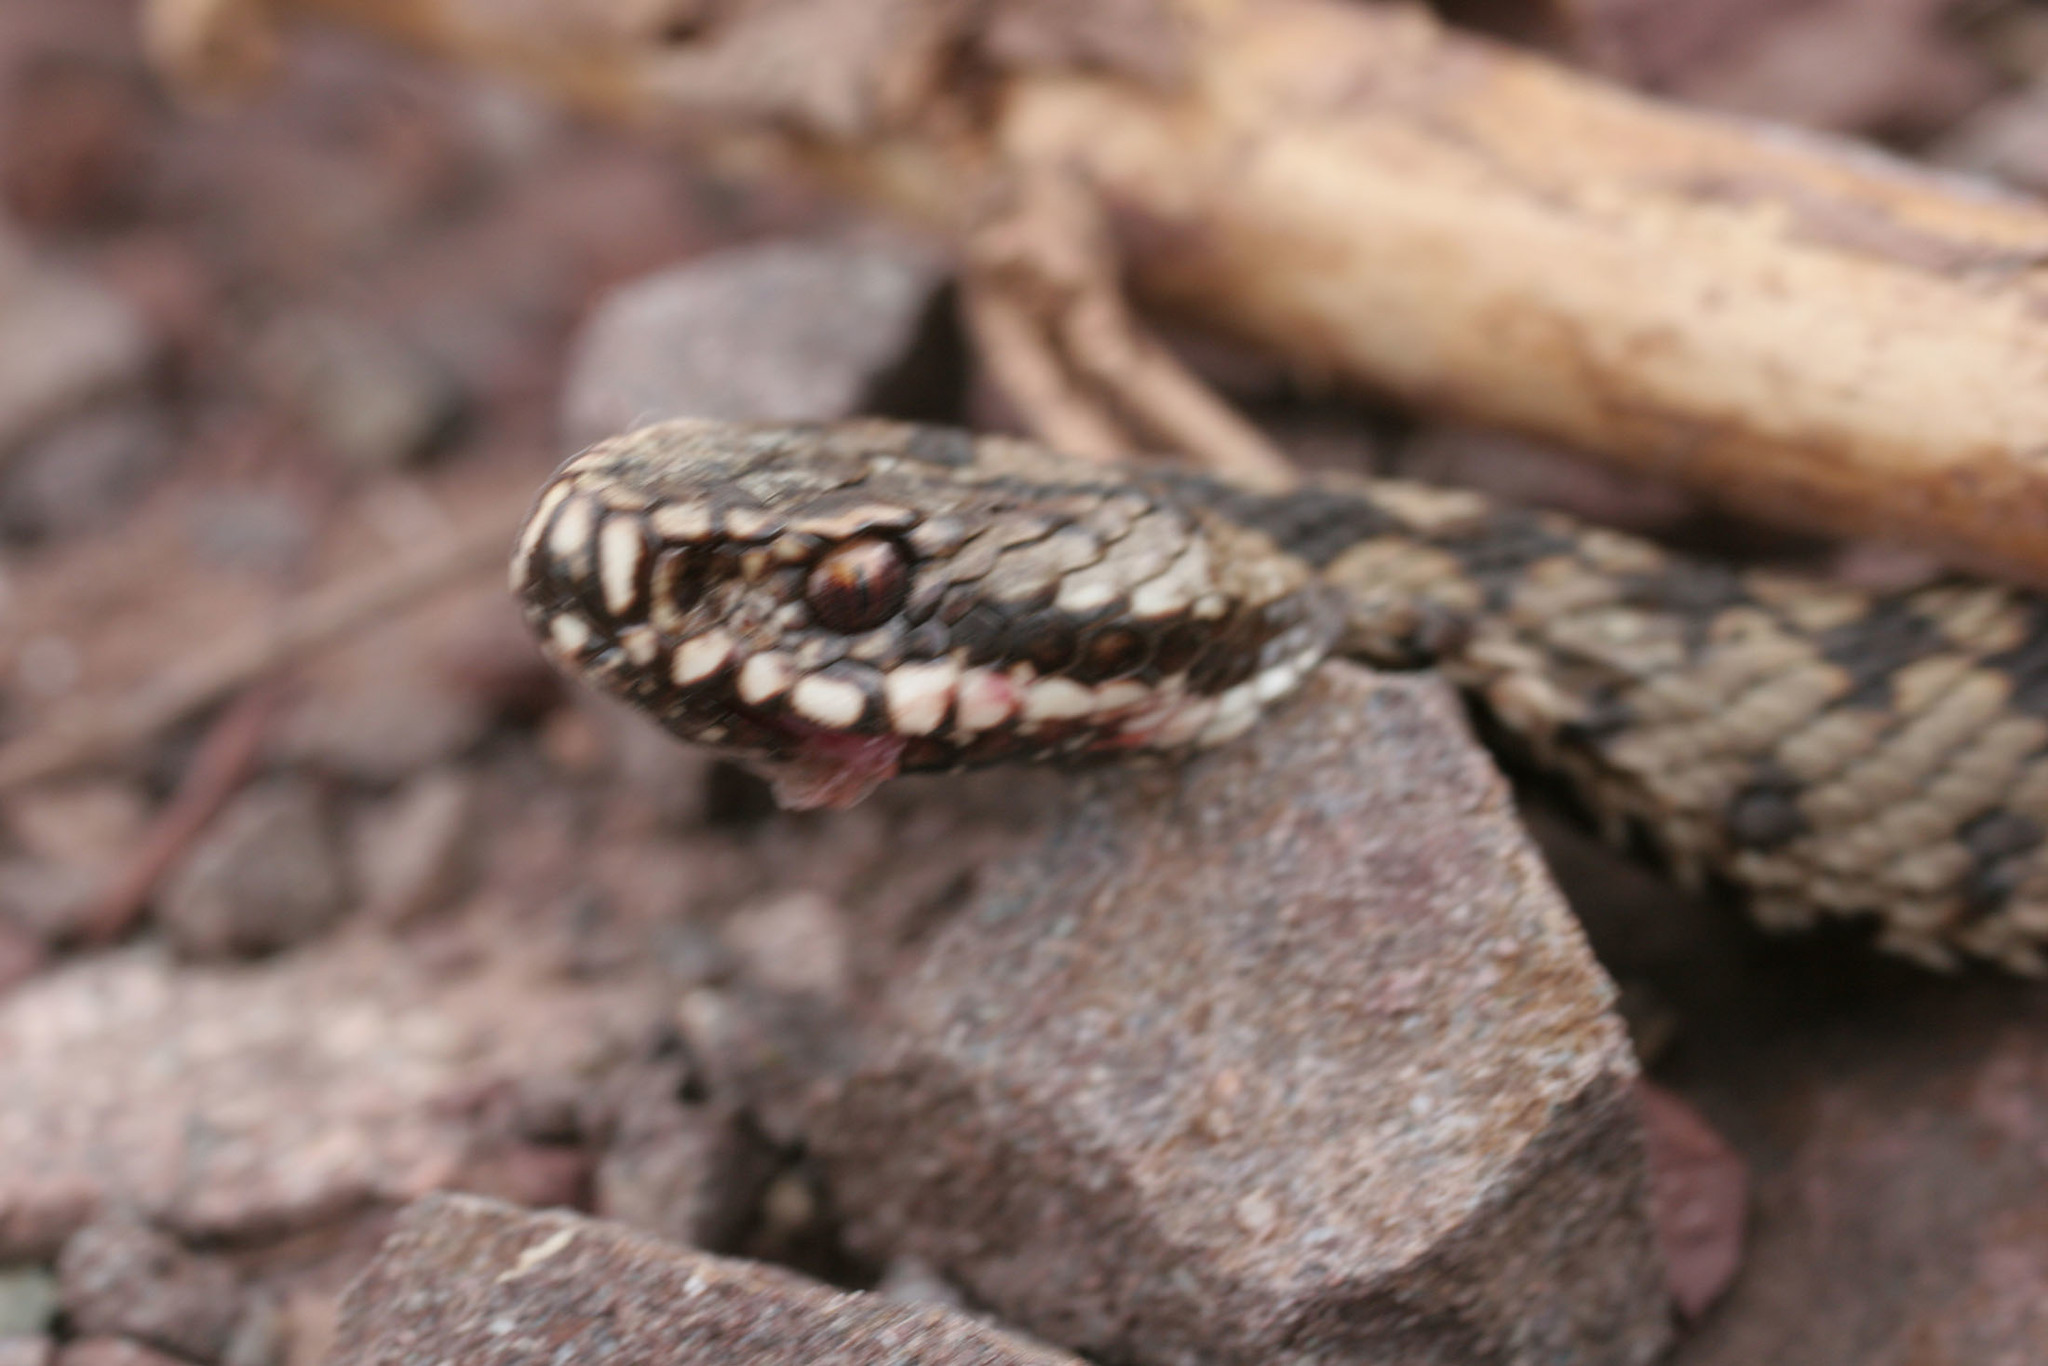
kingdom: Animalia
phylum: Chordata
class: Squamata
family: Viperidae
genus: Vipera
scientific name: Vipera berus
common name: Adder
